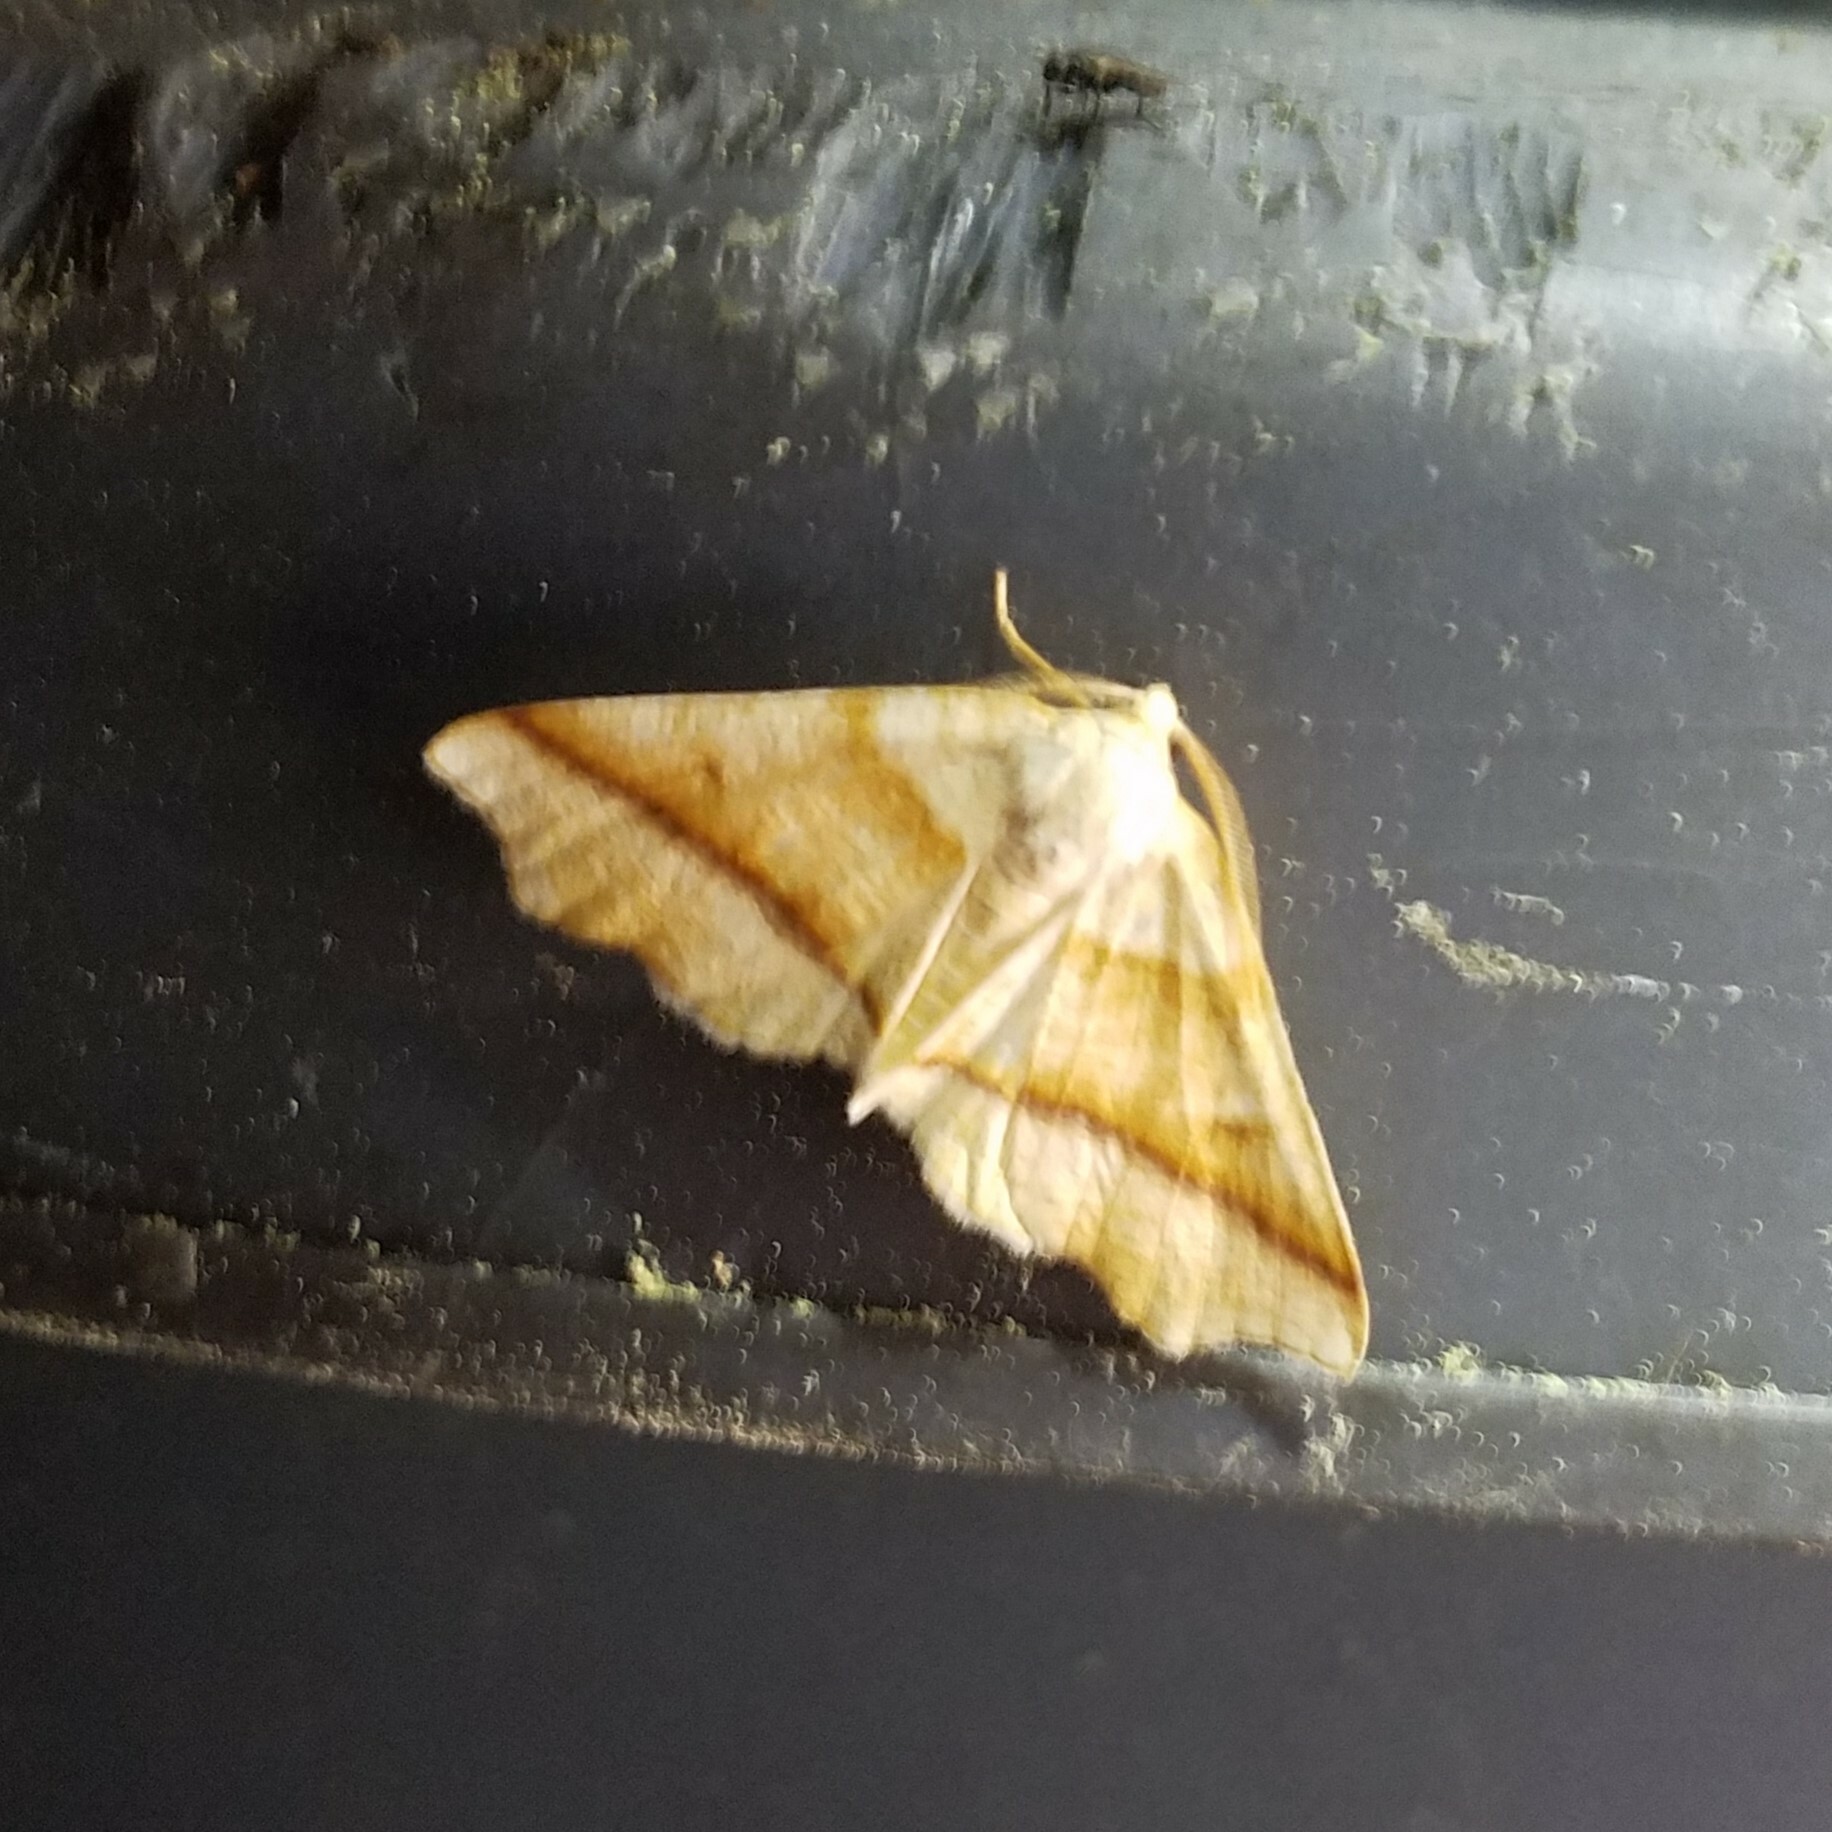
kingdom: Animalia
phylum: Arthropoda
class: Insecta
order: Lepidoptera
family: Geometridae
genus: Plagodis
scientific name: Plagodis alcoolaria
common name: Hollow-spotted plagodis
